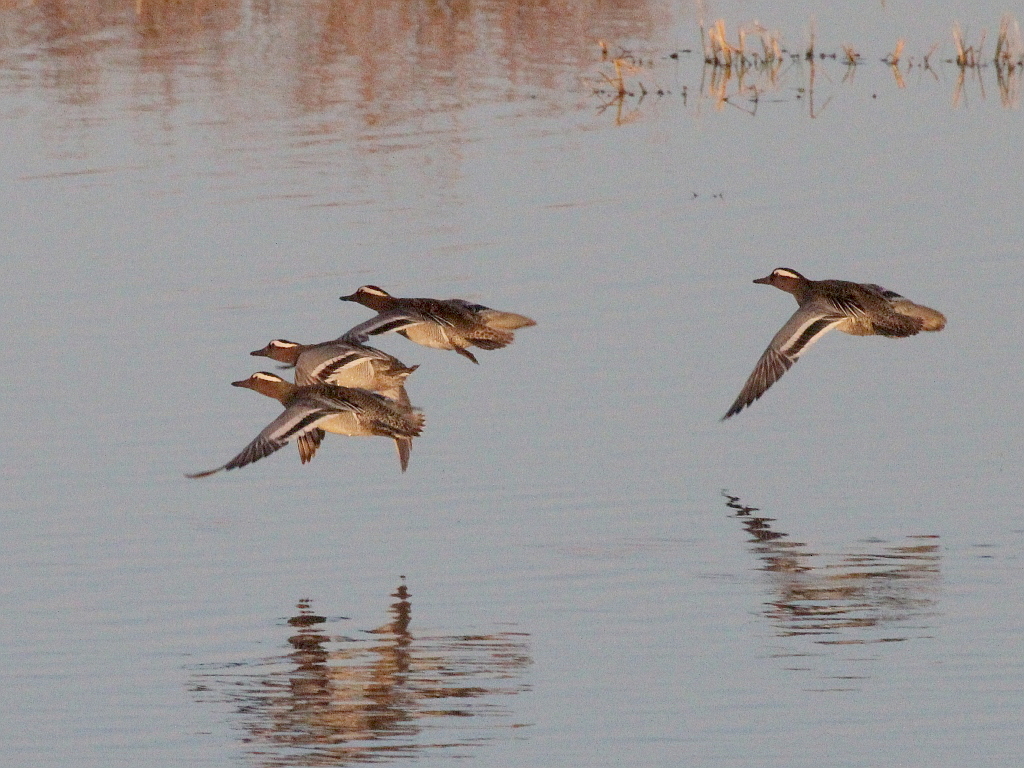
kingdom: Animalia
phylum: Chordata
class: Aves
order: Anseriformes
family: Anatidae
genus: Spatula
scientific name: Spatula querquedula
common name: Garganey
